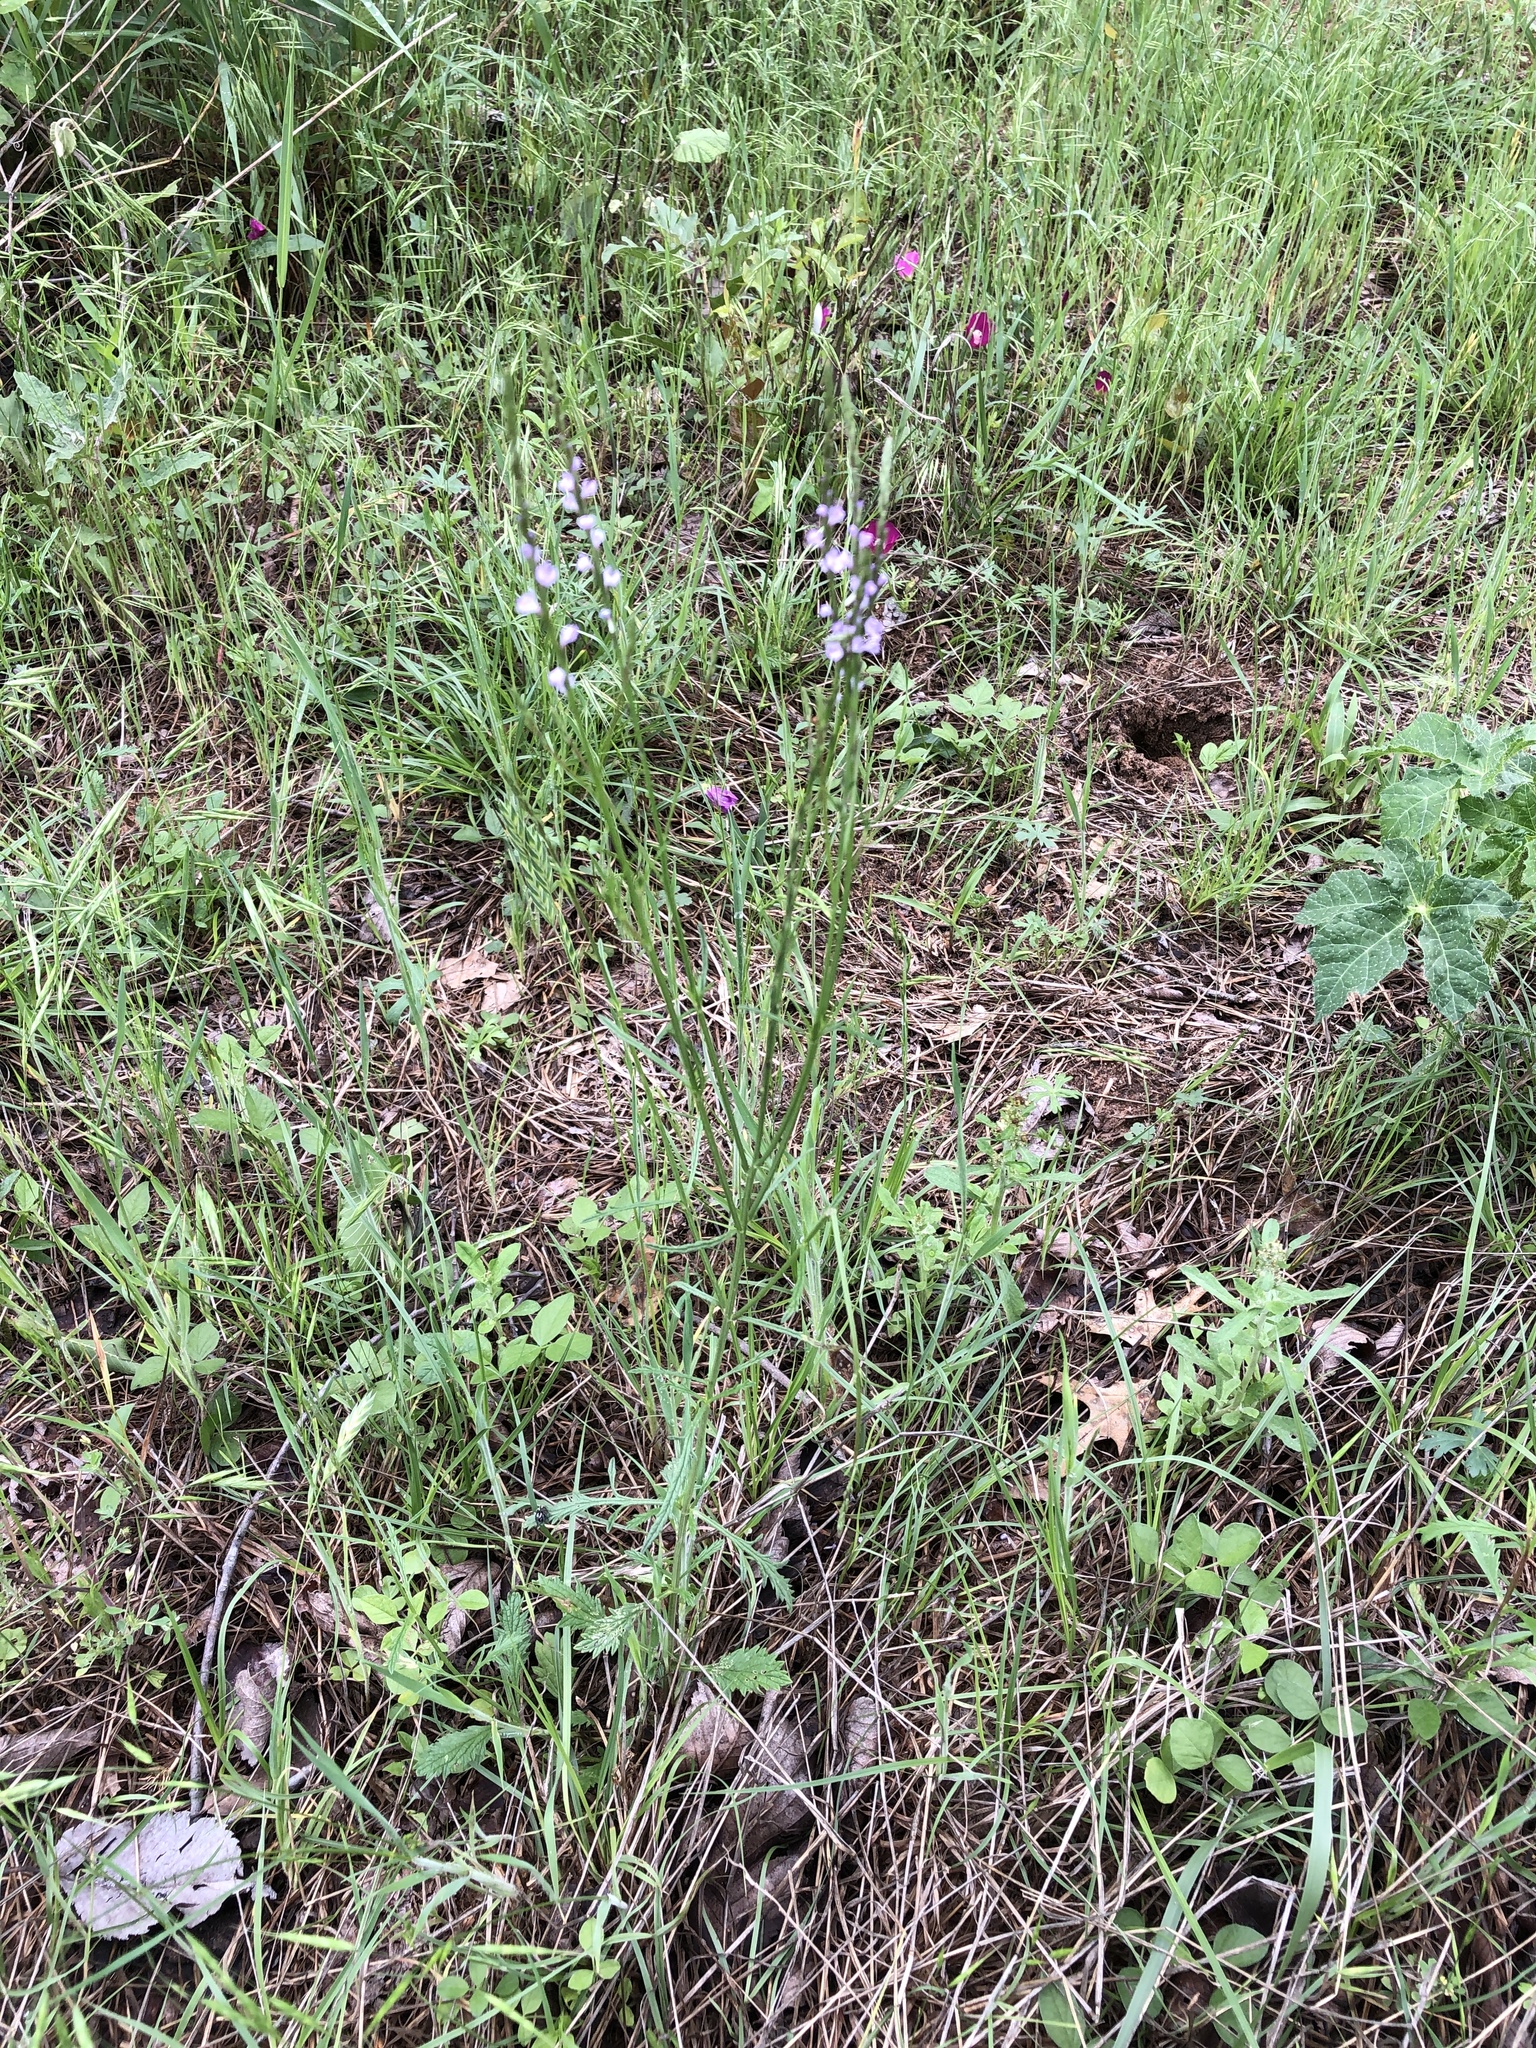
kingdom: Plantae
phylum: Tracheophyta
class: Magnoliopsida
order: Lamiales
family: Verbenaceae
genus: Verbena
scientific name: Verbena halei
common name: Texas vervain
